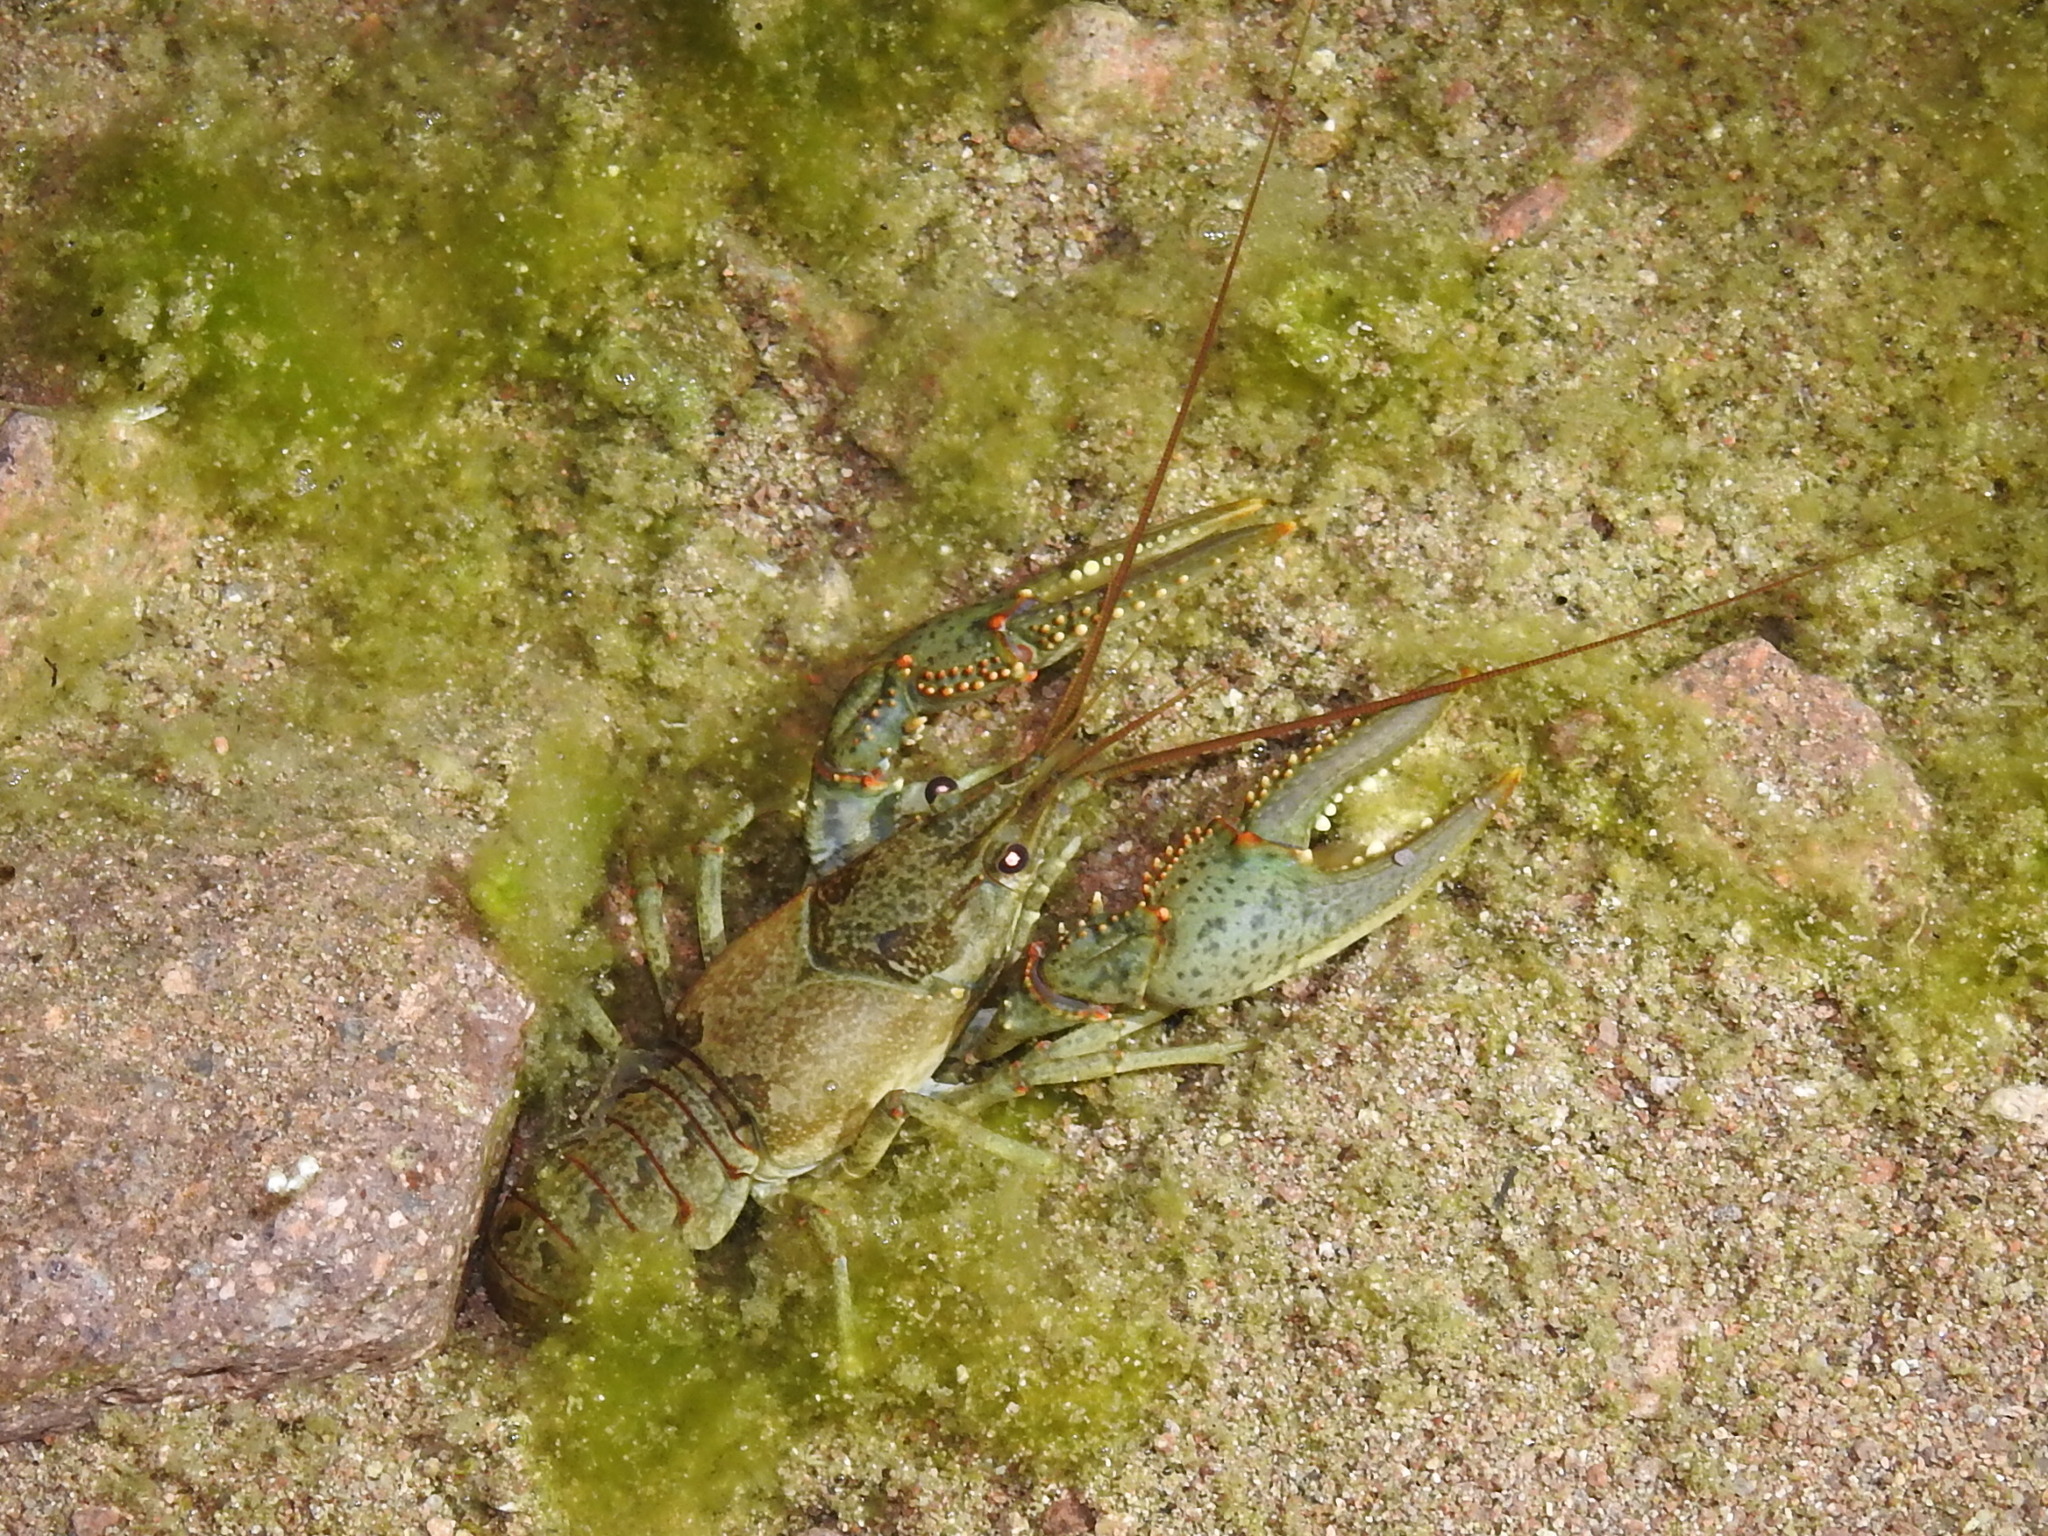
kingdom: Animalia
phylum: Arthropoda
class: Malacostraca
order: Decapoda
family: Cambaridae
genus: Faxonius
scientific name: Faxonius virilis
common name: Virile crayfish
